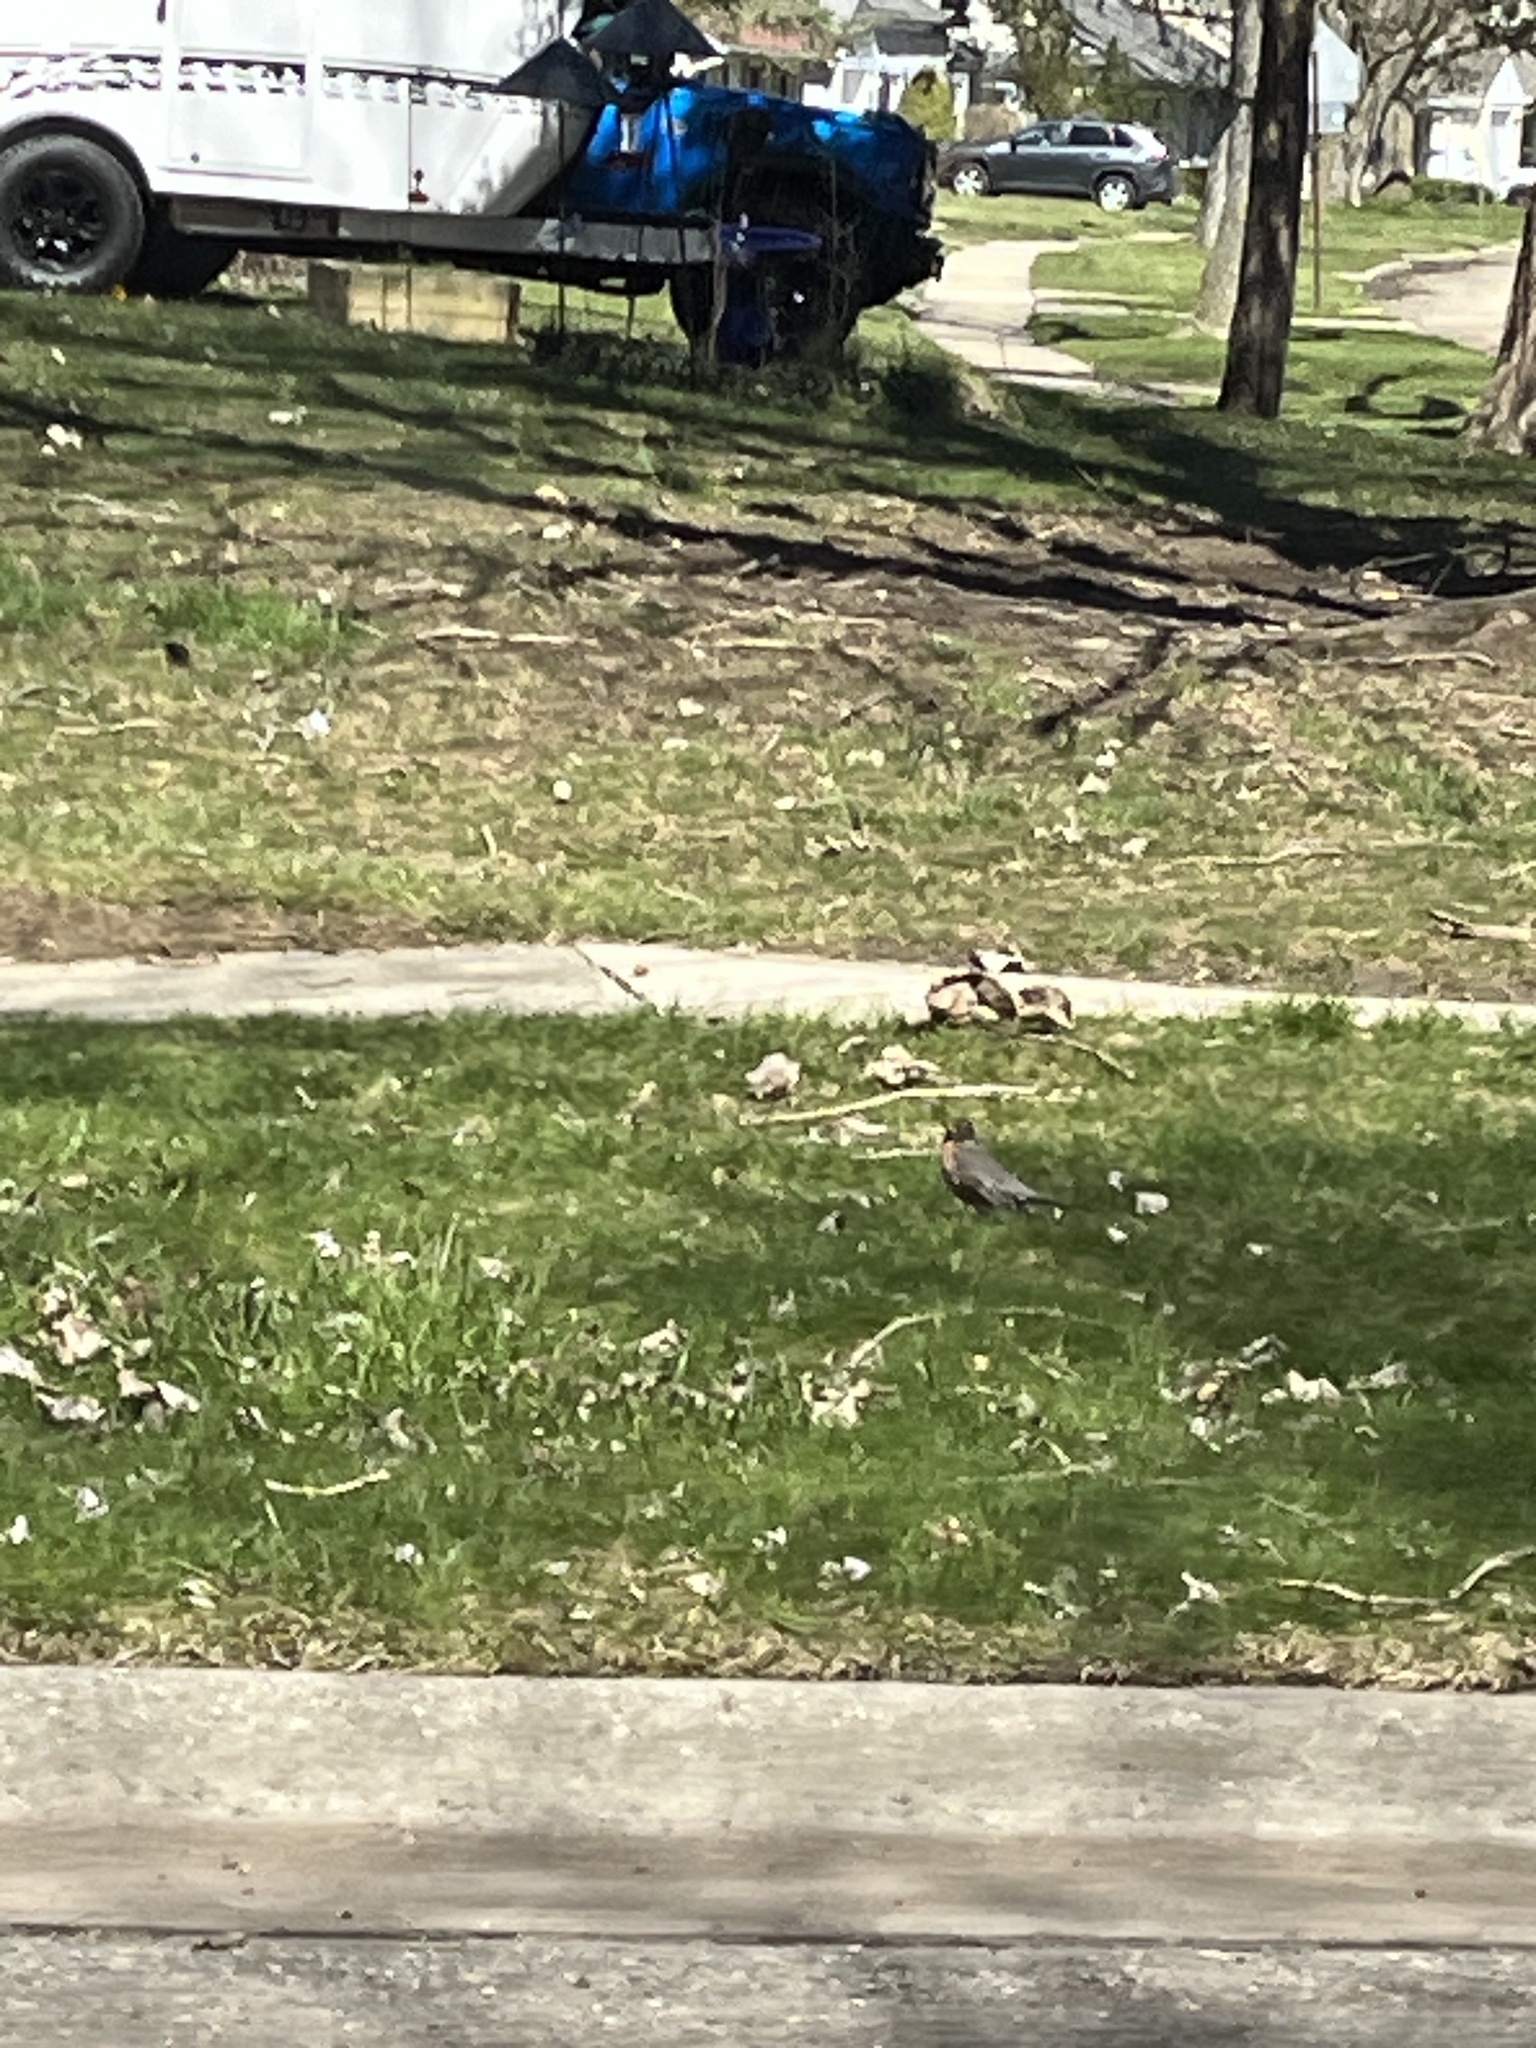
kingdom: Animalia
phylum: Chordata
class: Aves
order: Passeriformes
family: Turdidae
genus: Turdus
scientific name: Turdus migratorius
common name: American robin
